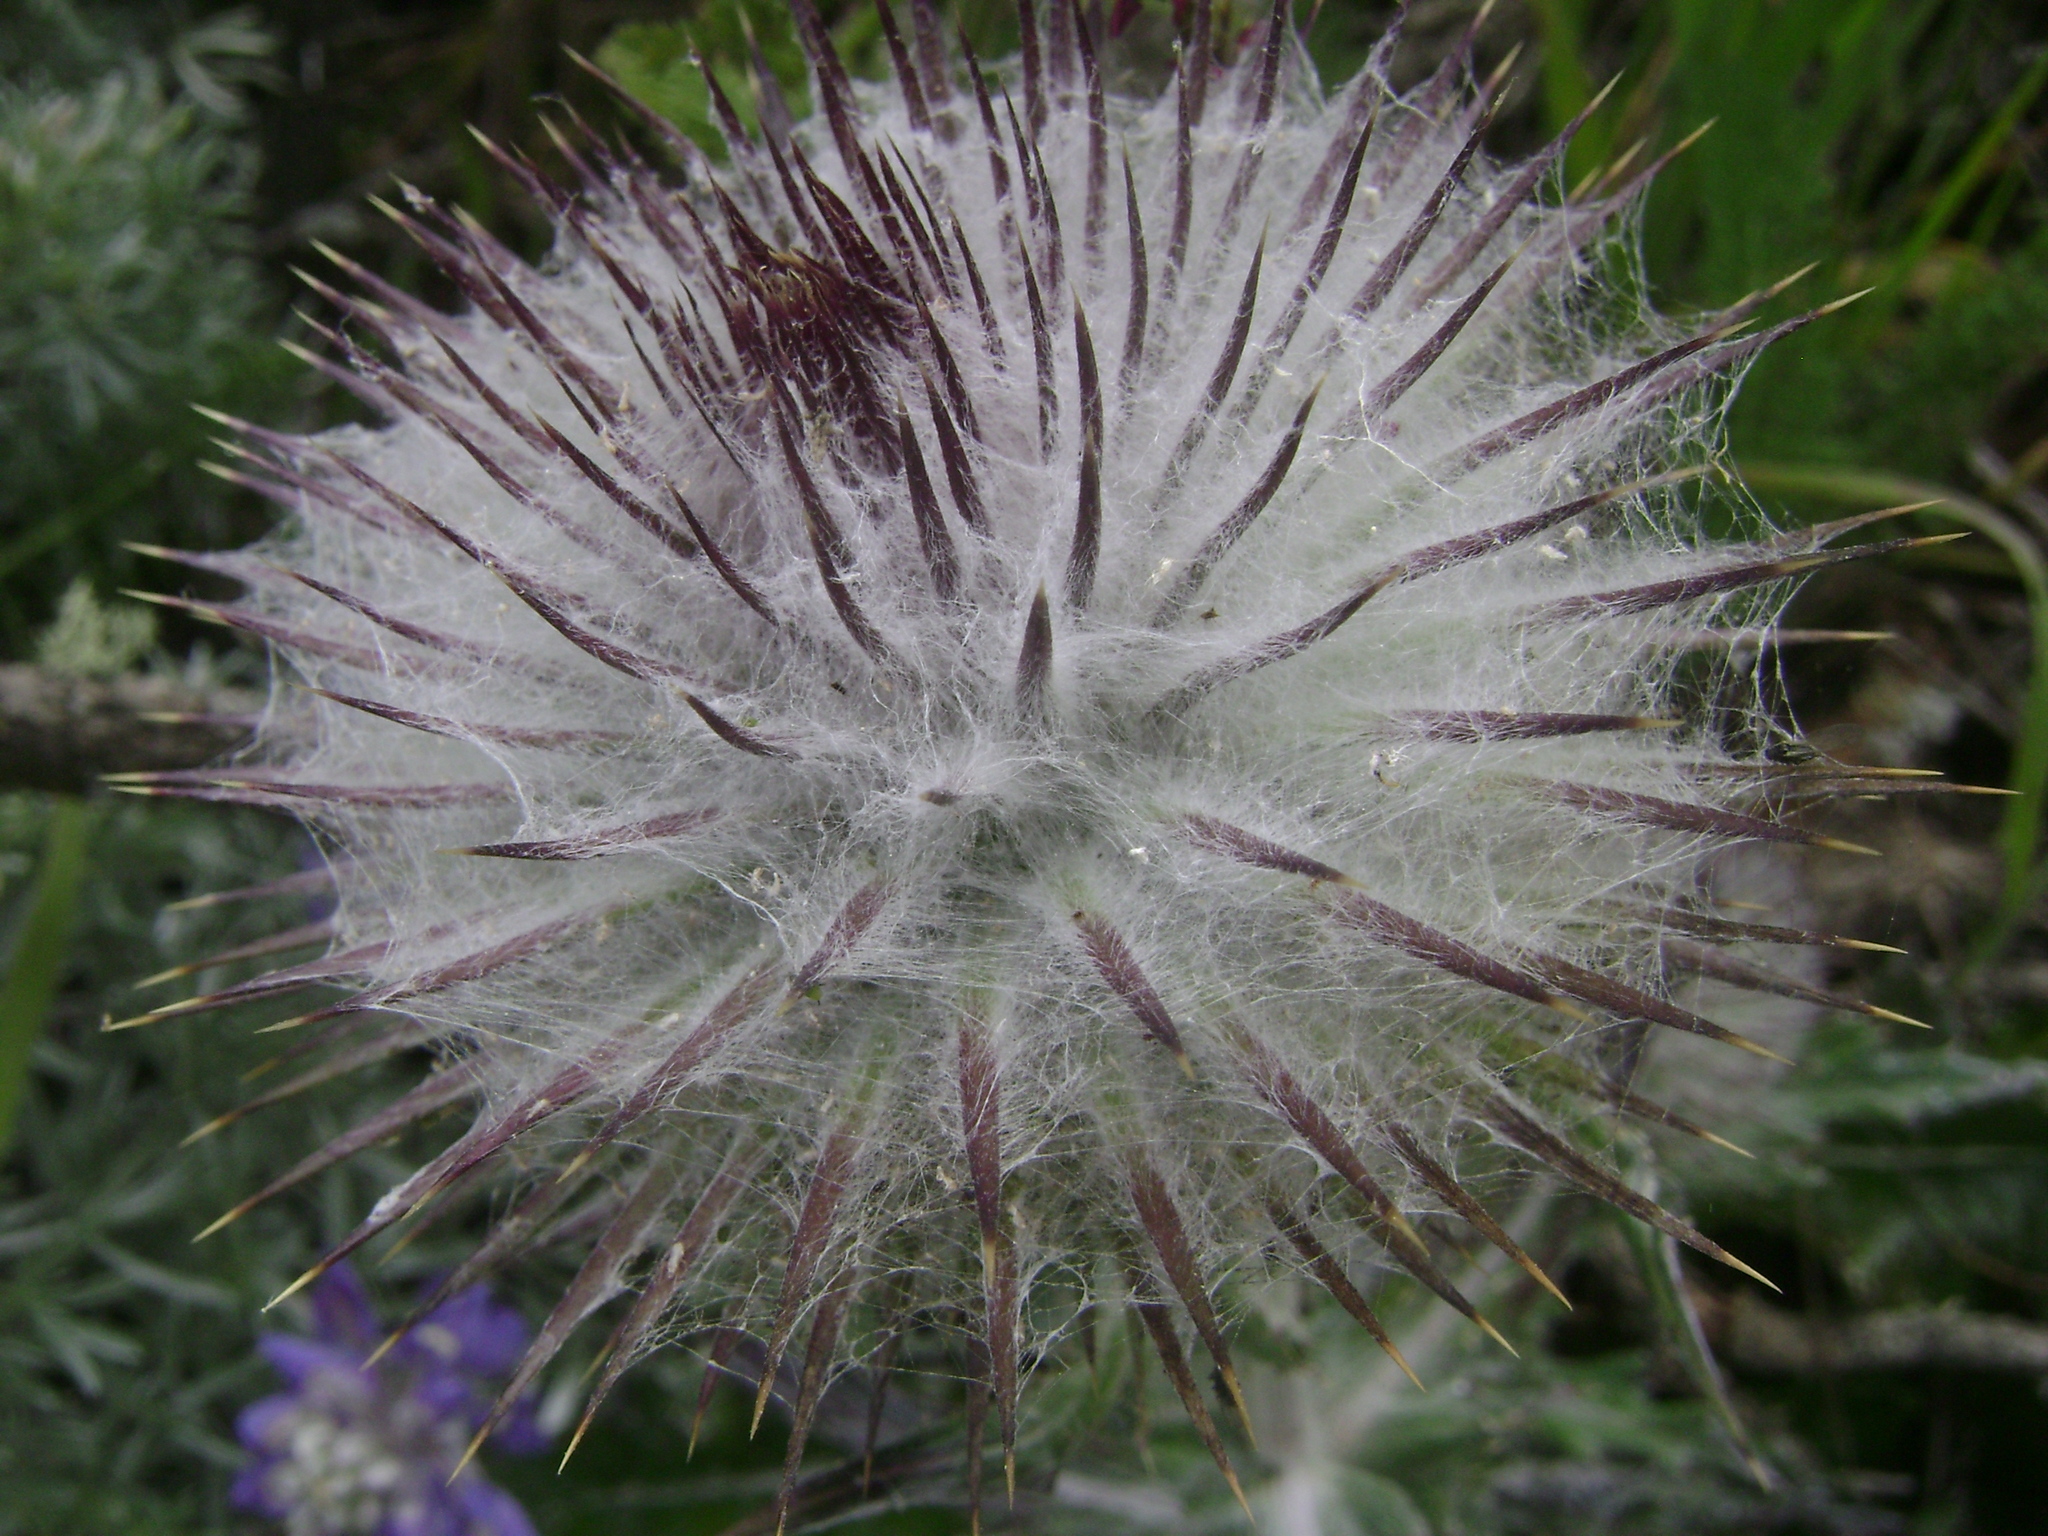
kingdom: Plantae
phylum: Tracheophyta
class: Magnoliopsida
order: Asterales
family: Asteraceae
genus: Cirsium
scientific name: Cirsium occidentale
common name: Western thistle
